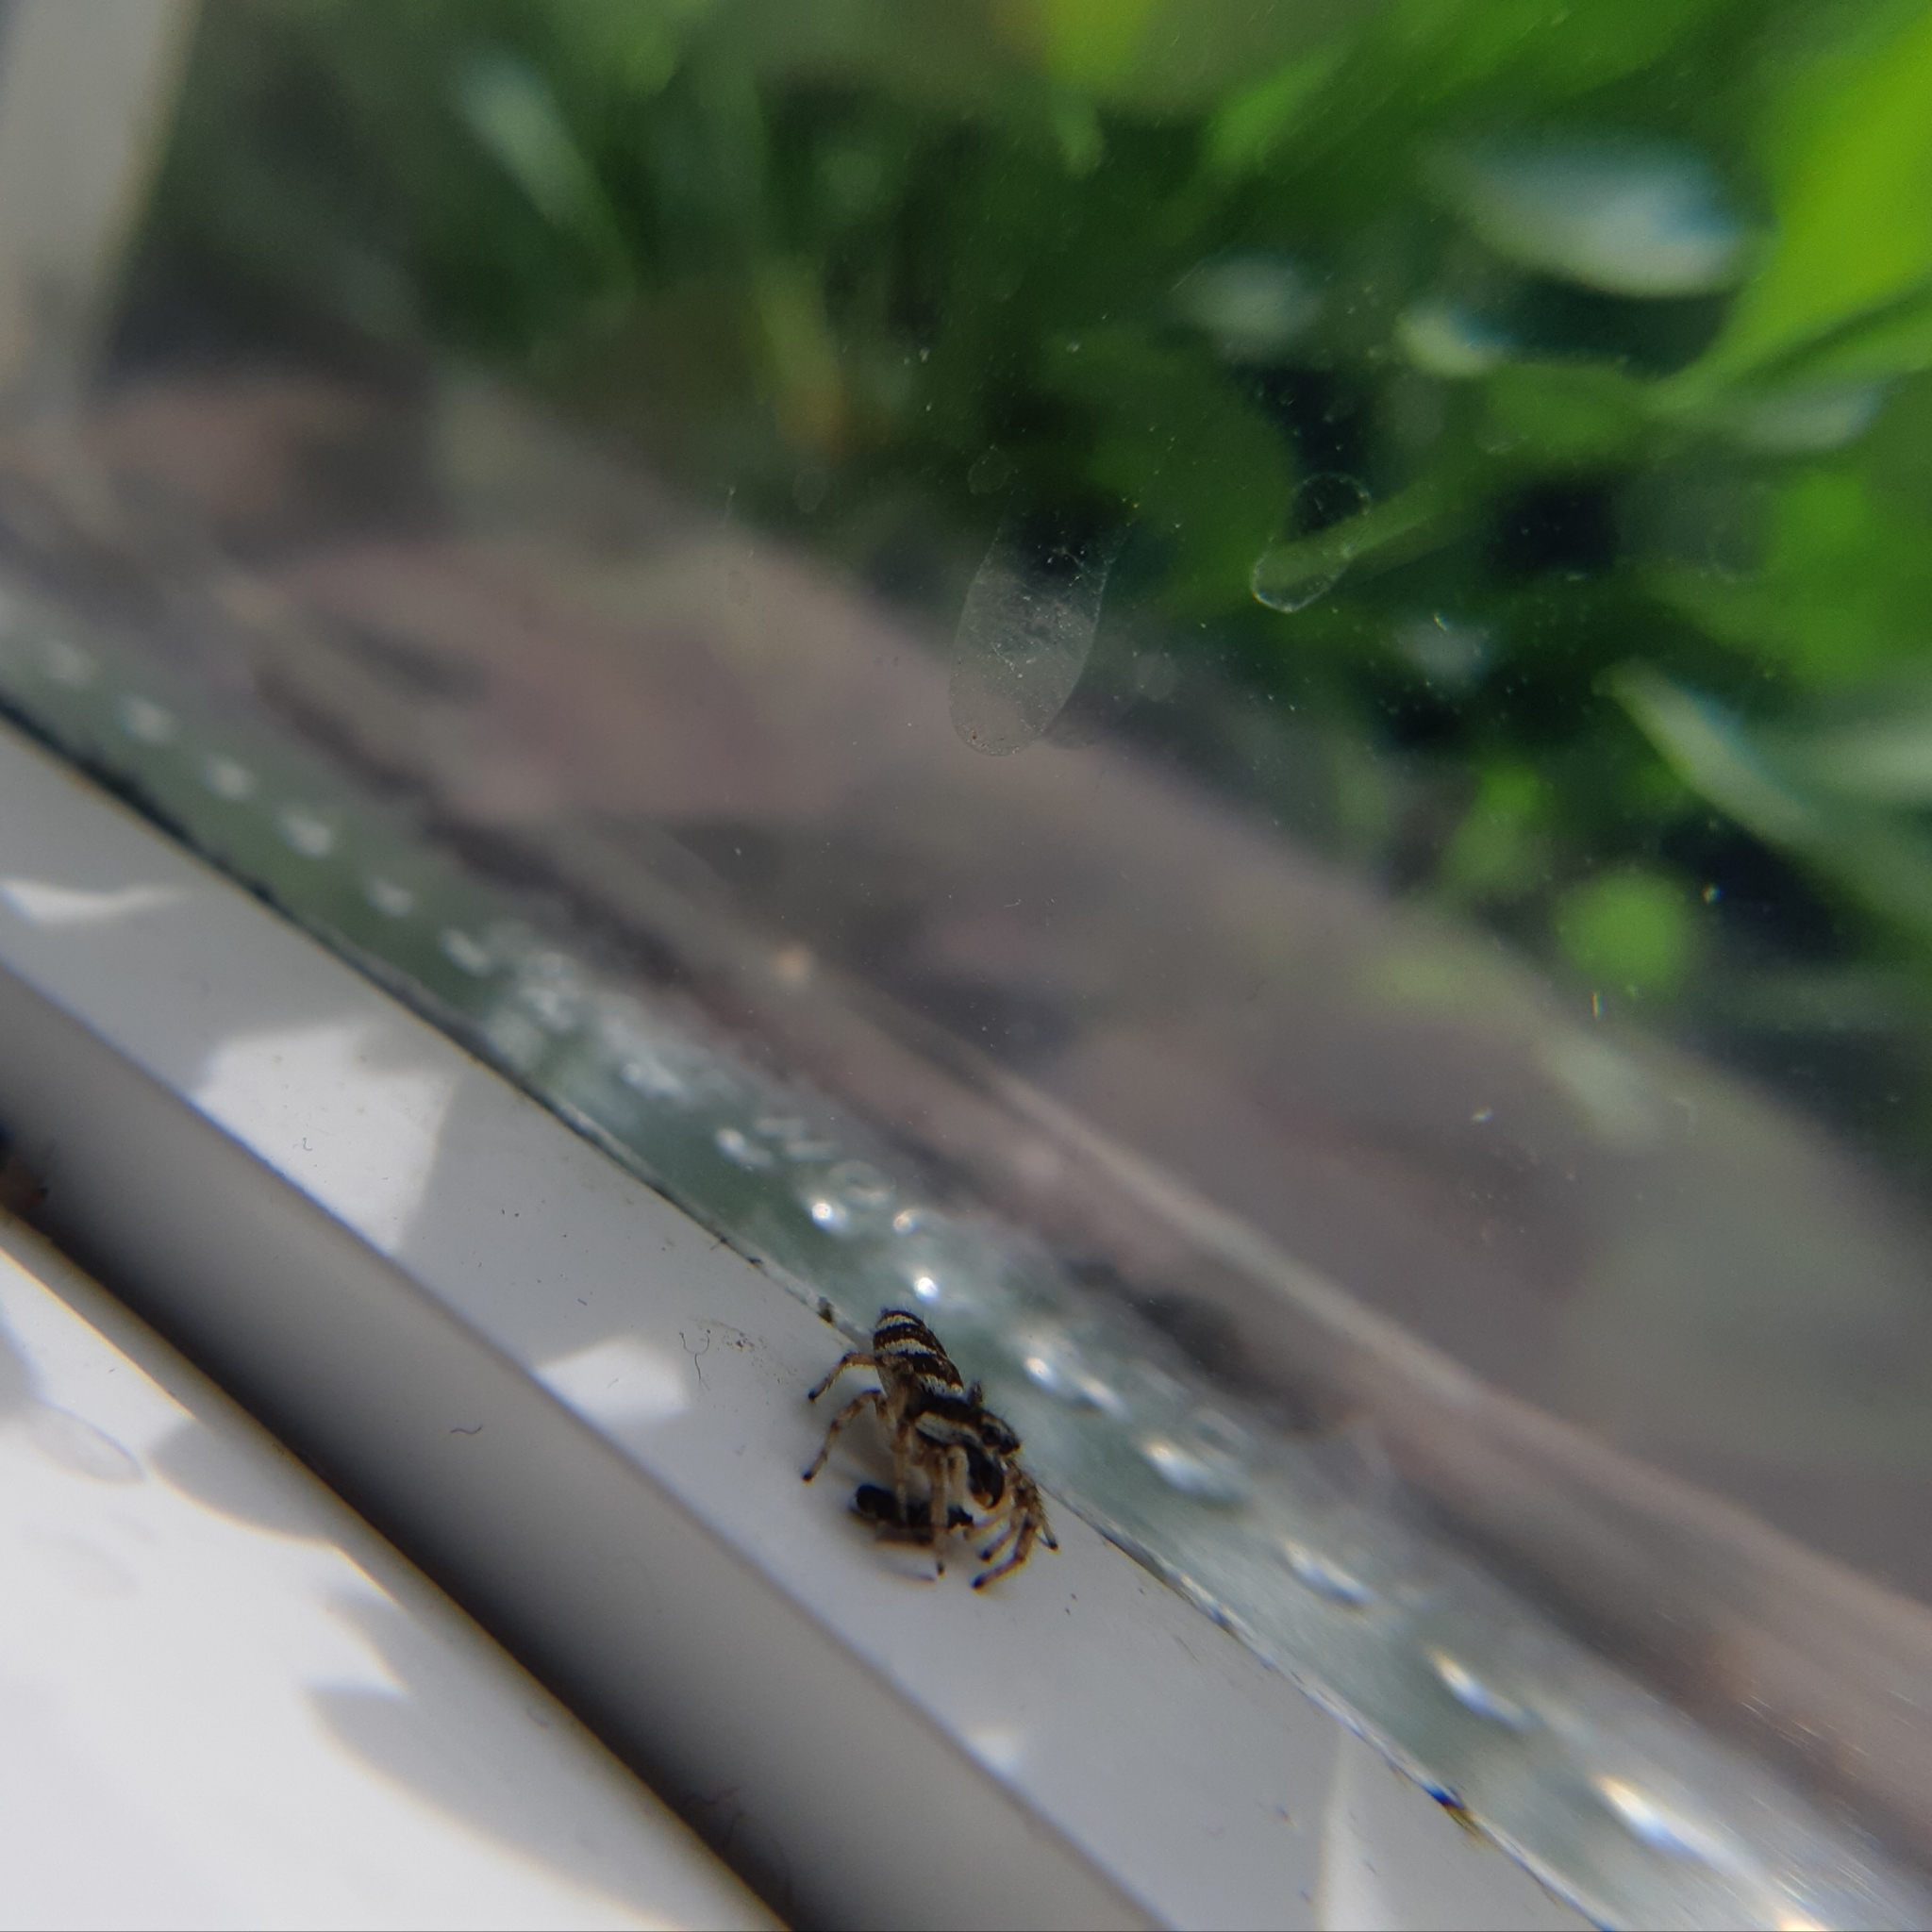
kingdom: Animalia
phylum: Arthropoda
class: Arachnida
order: Araneae
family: Salticidae
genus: Salticus
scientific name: Salticus scenicus
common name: Zebra jumper
